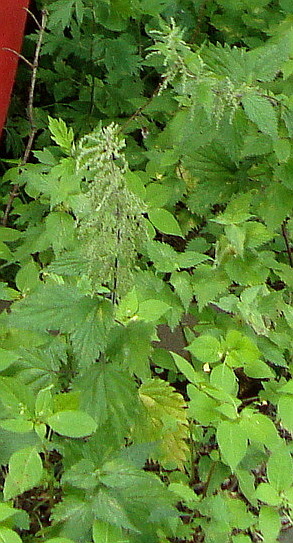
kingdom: Plantae
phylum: Tracheophyta
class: Magnoliopsida
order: Rosales
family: Urticaceae
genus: Urtica
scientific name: Urtica dioica
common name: Common nettle
